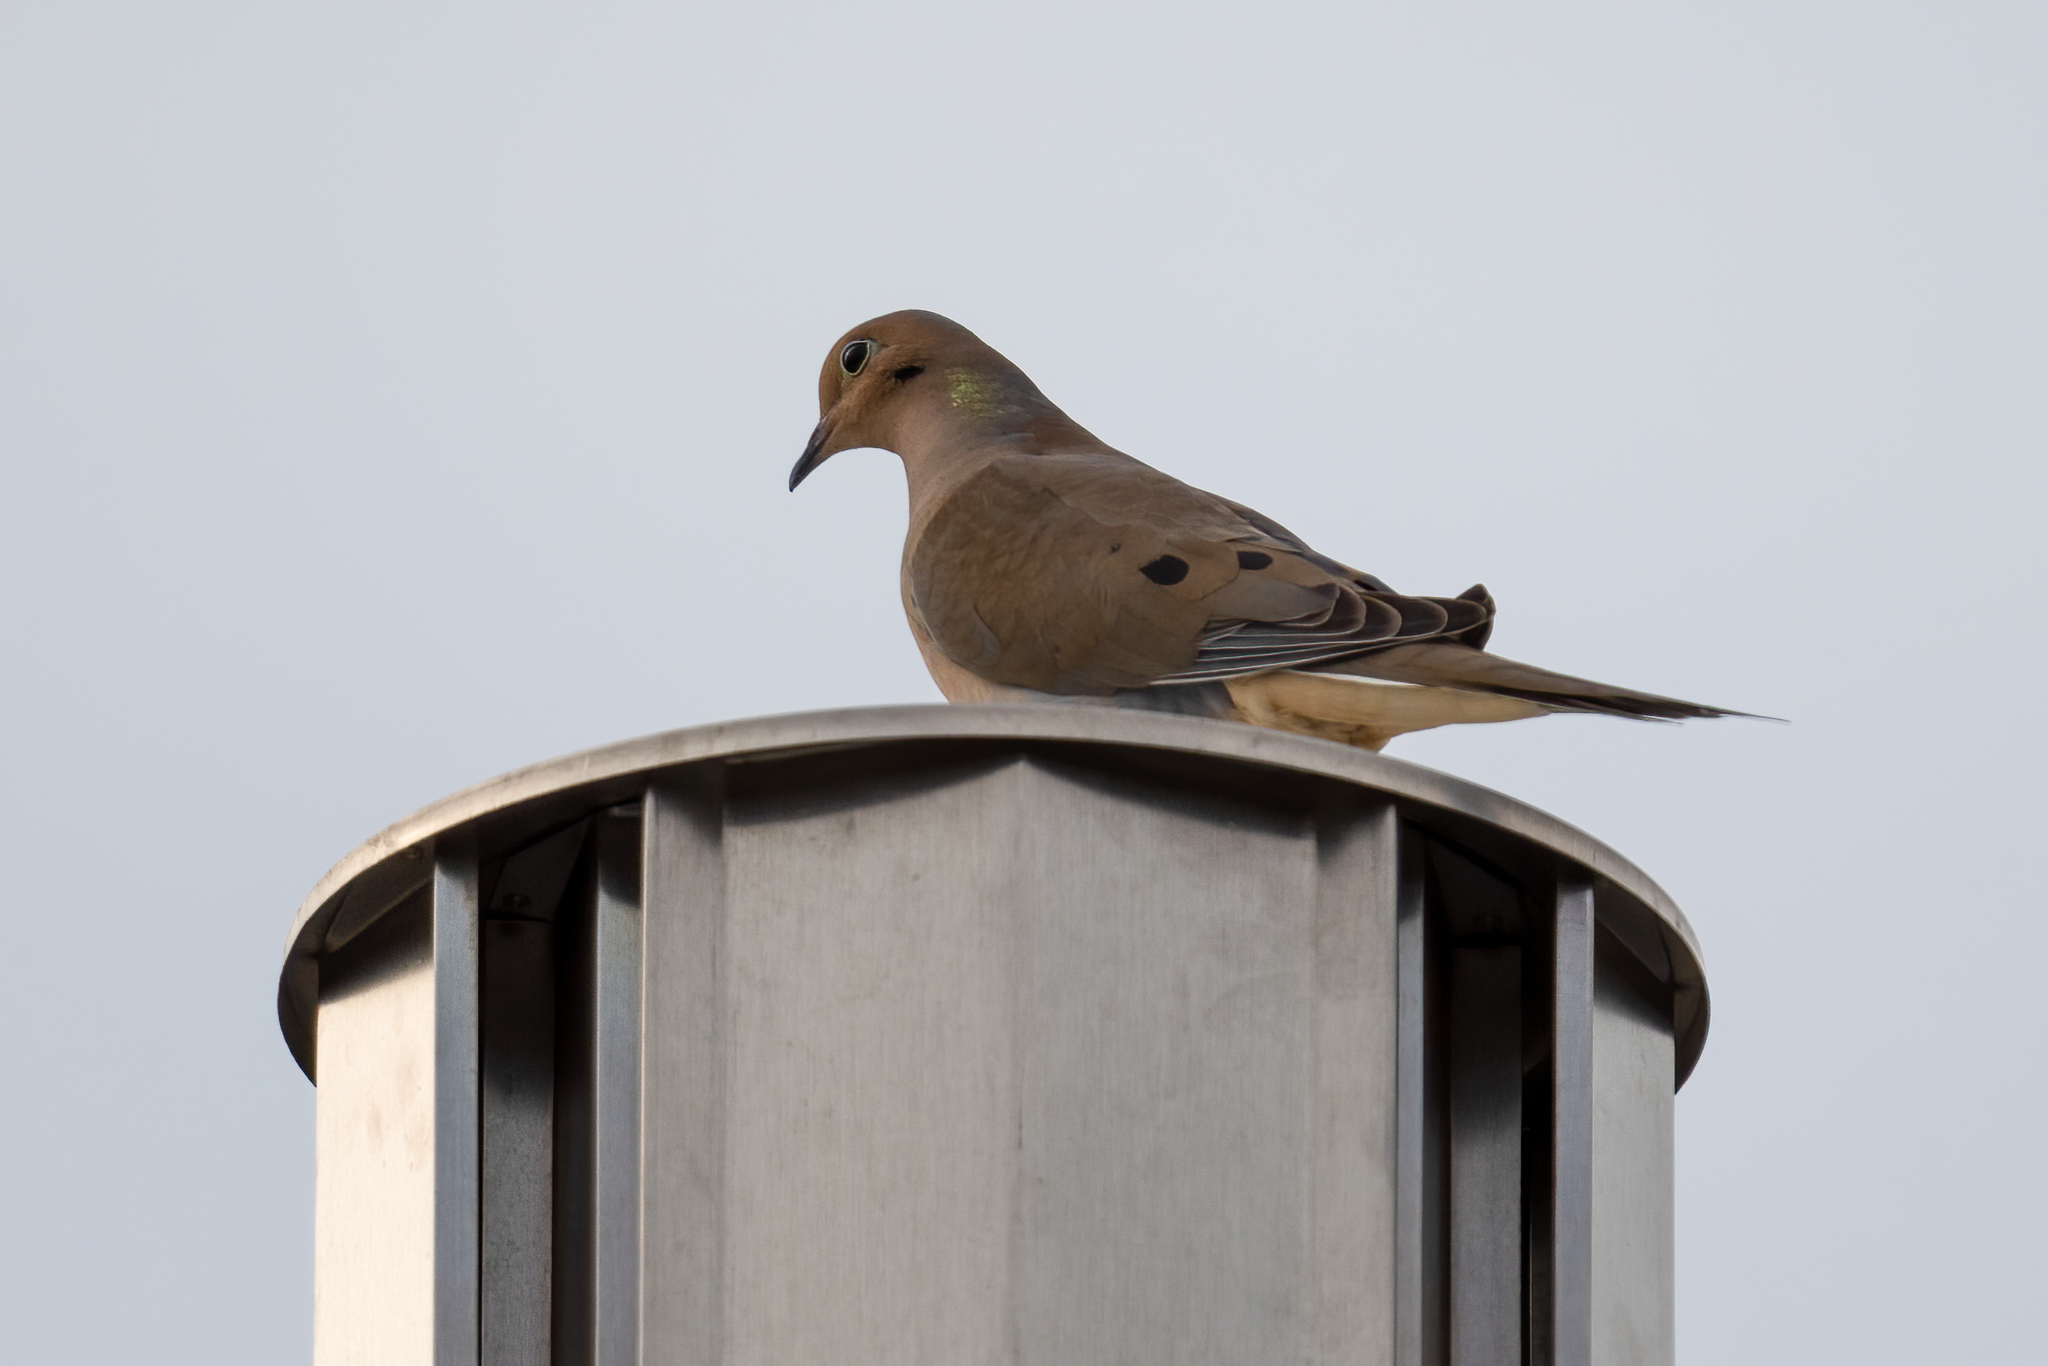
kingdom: Animalia
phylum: Chordata
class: Aves
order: Columbiformes
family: Columbidae
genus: Zenaida
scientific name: Zenaida macroura
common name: Mourning dove
